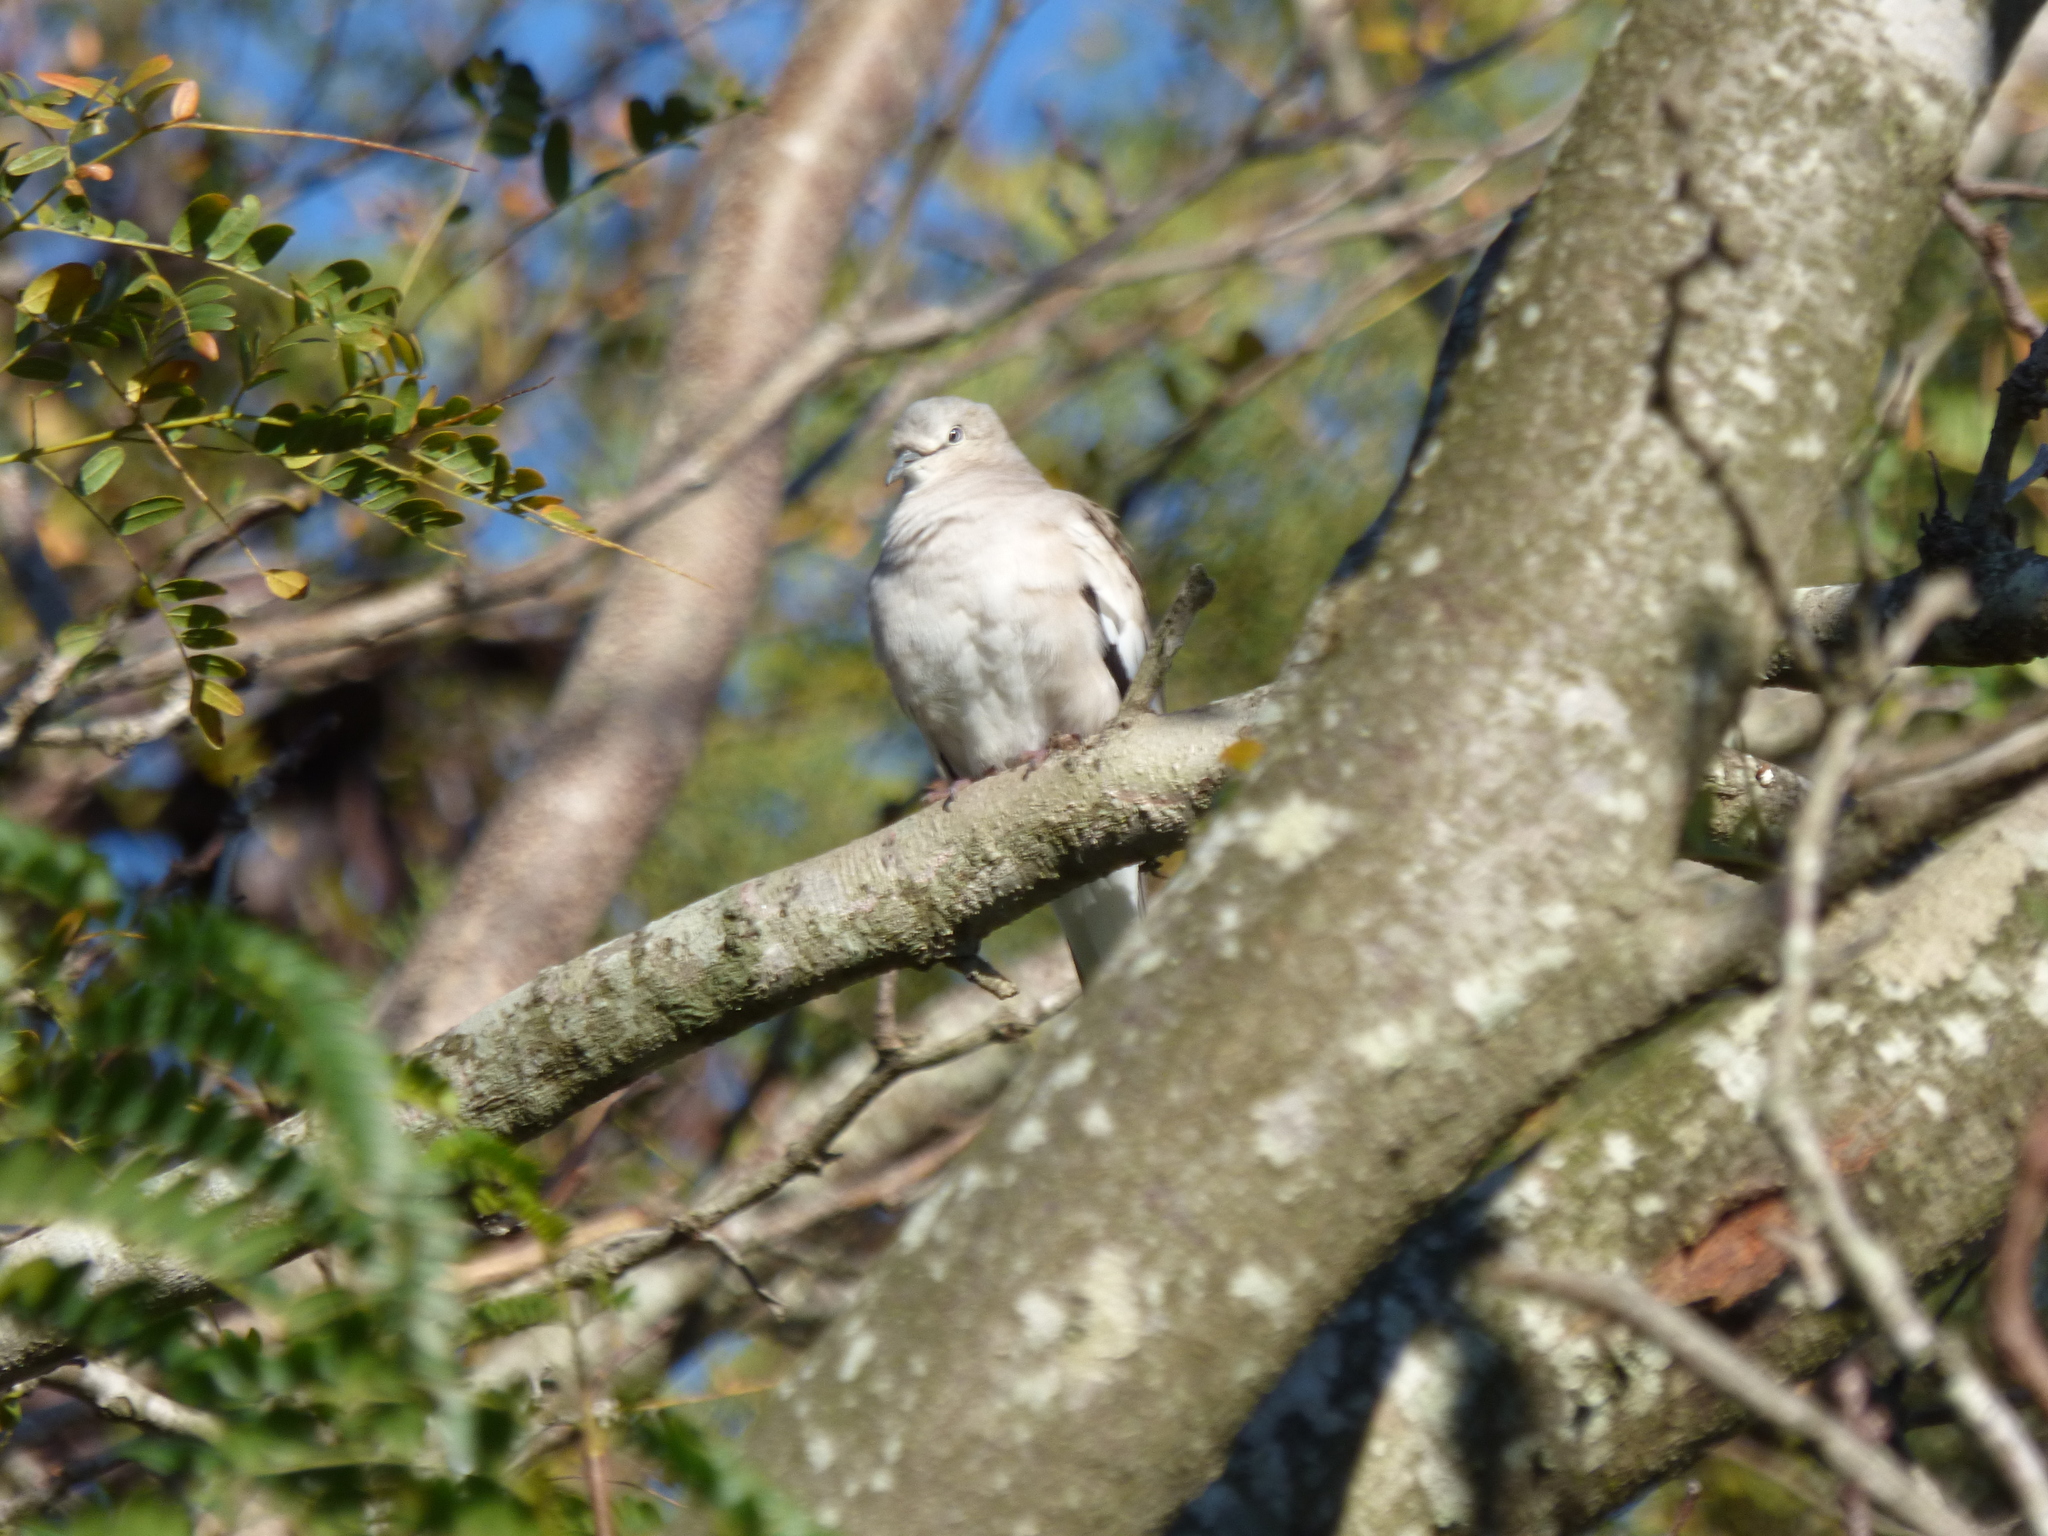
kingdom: Animalia
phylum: Chordata
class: Aves
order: Columbiformes
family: Columbidae
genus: Columbina
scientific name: Columbina picui
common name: Picui ground dove
